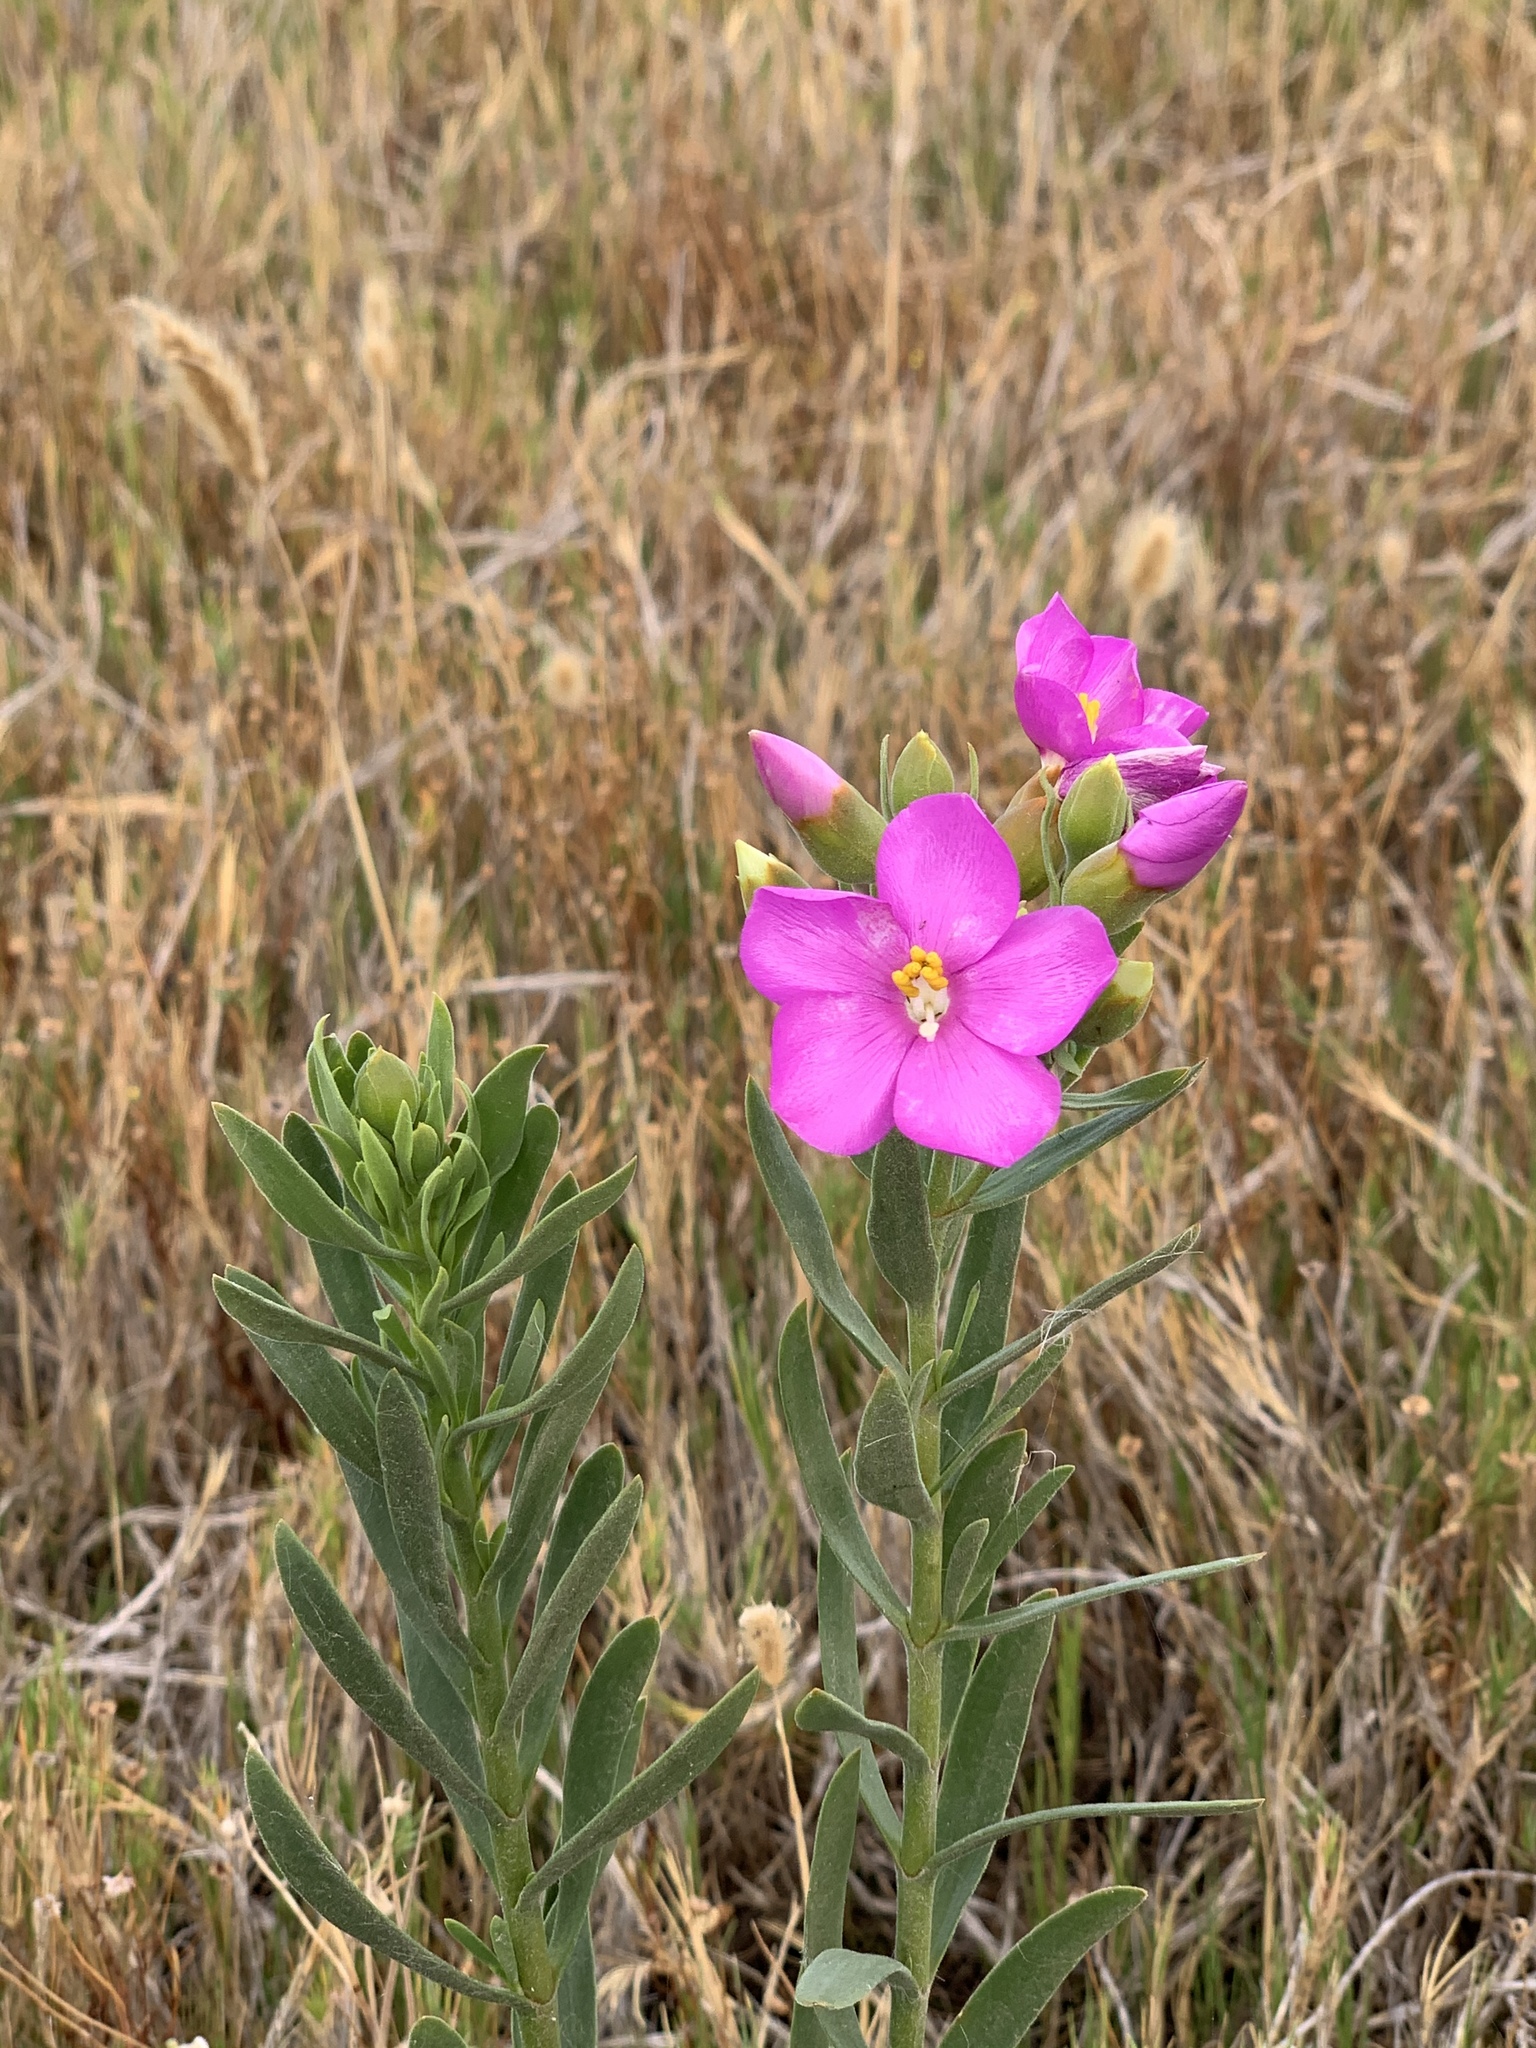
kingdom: Plantae
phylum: Tracheophyta
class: Magnoliopsida
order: Gentianales
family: Gentianaceae
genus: Orphium
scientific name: Orphium frutescens
